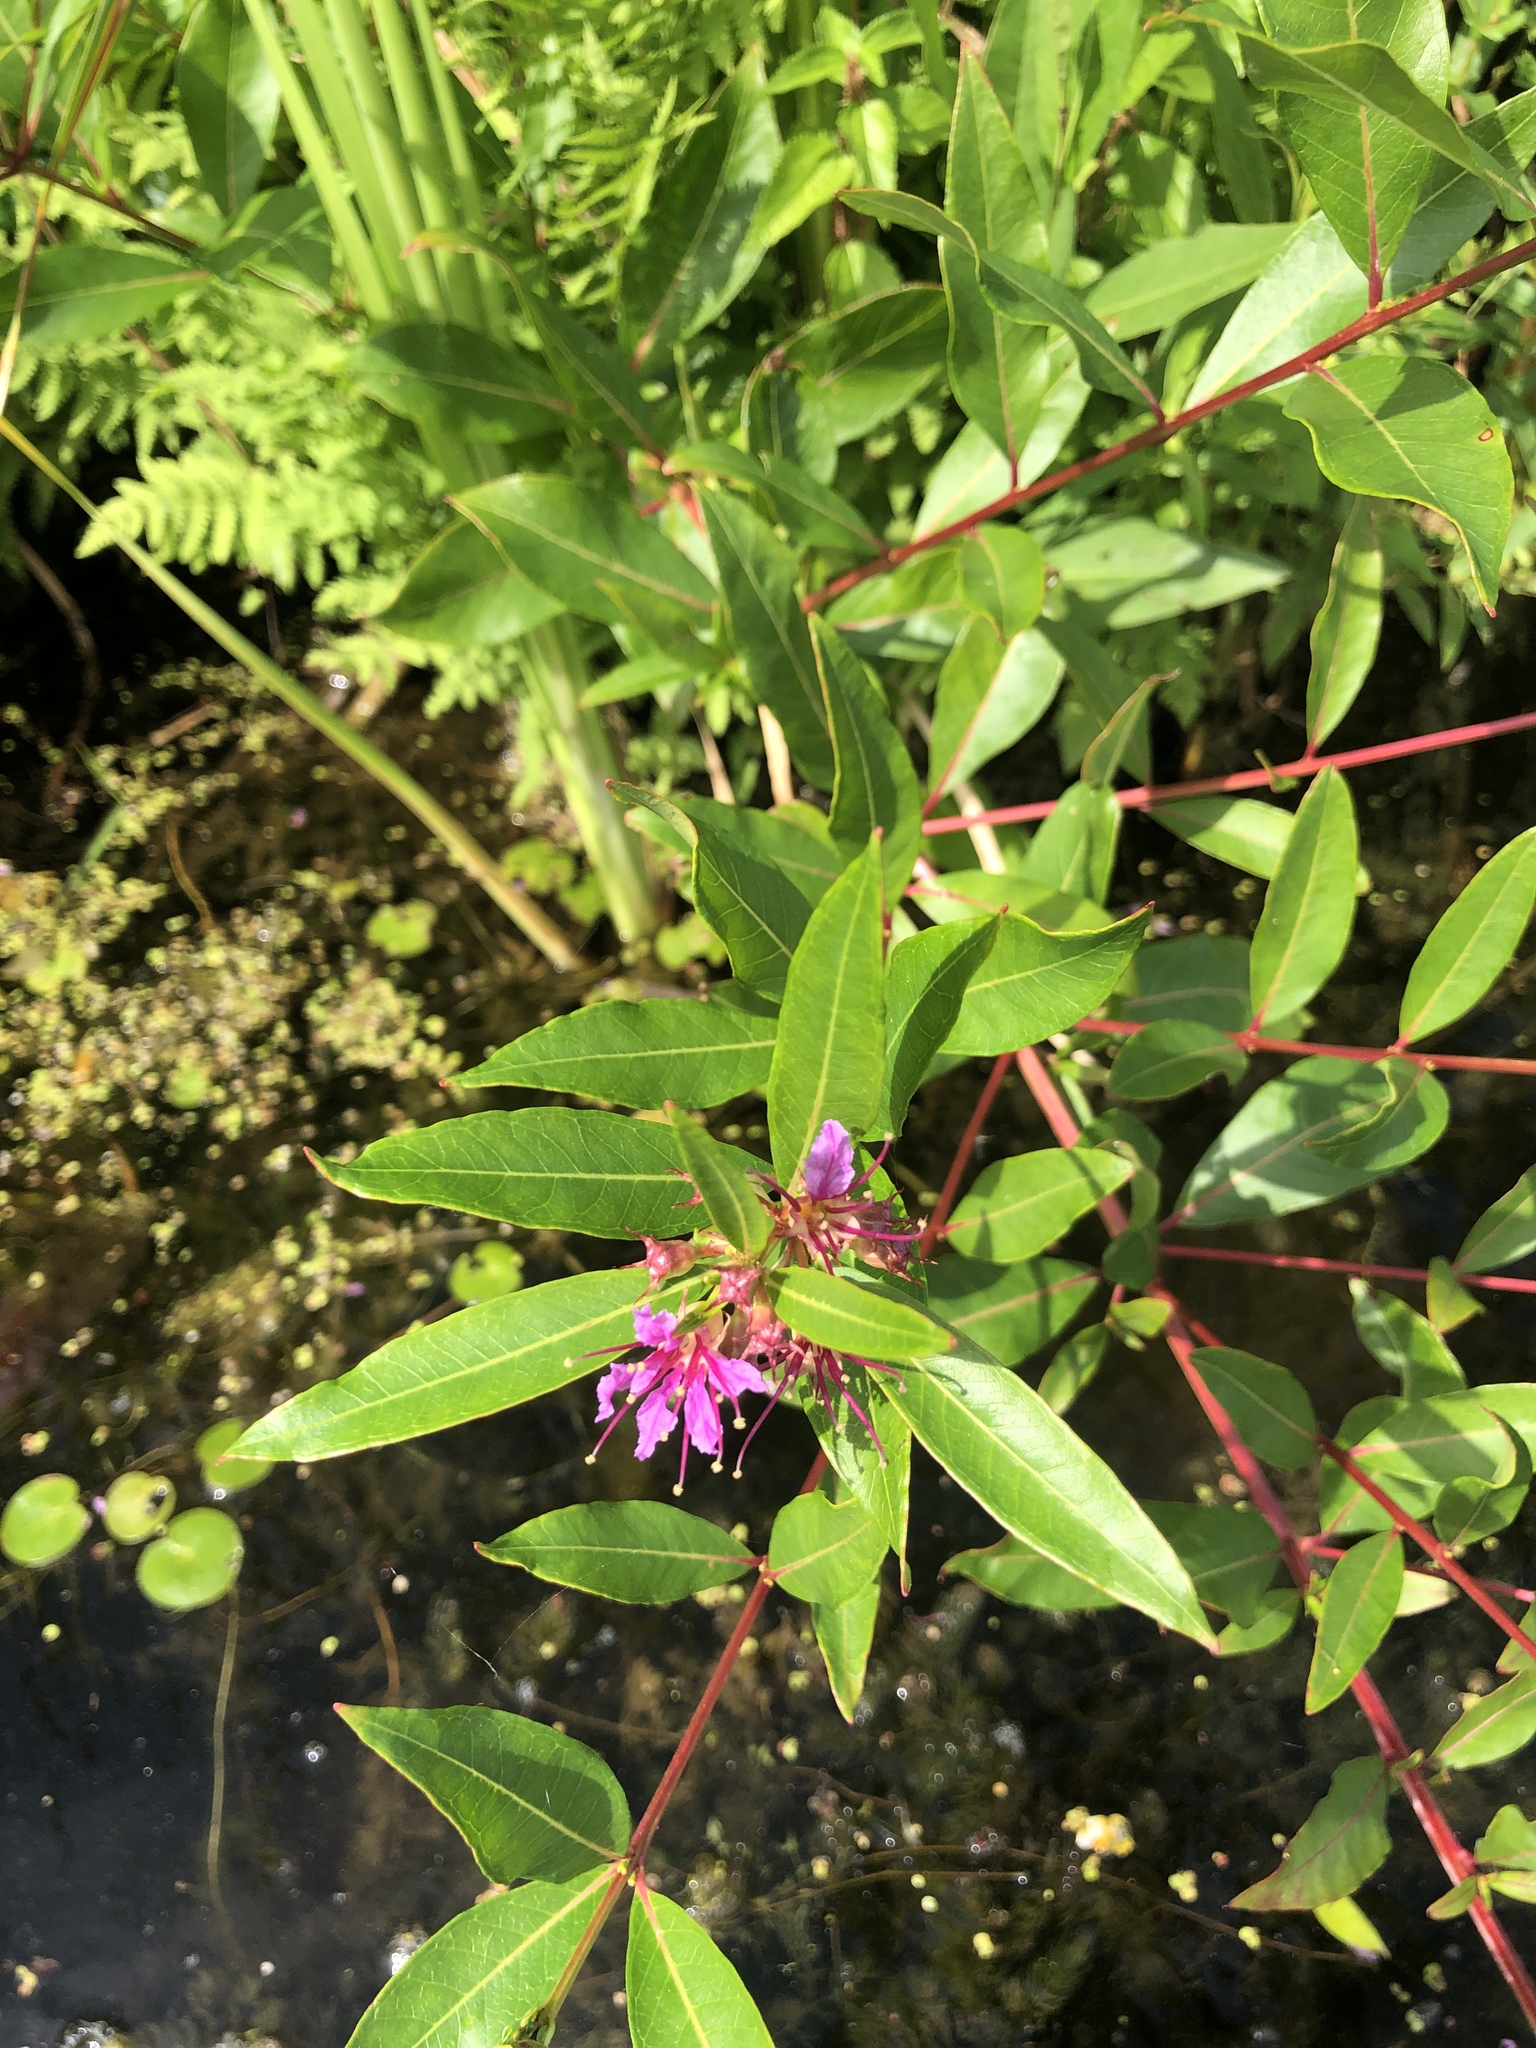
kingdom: Plantae
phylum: Tracheophyta
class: Magnoliopsida
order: Myrtales
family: Lythraceae
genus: Decodon
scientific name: Decodon verticillatus
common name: Hairy swamp loosestrife
